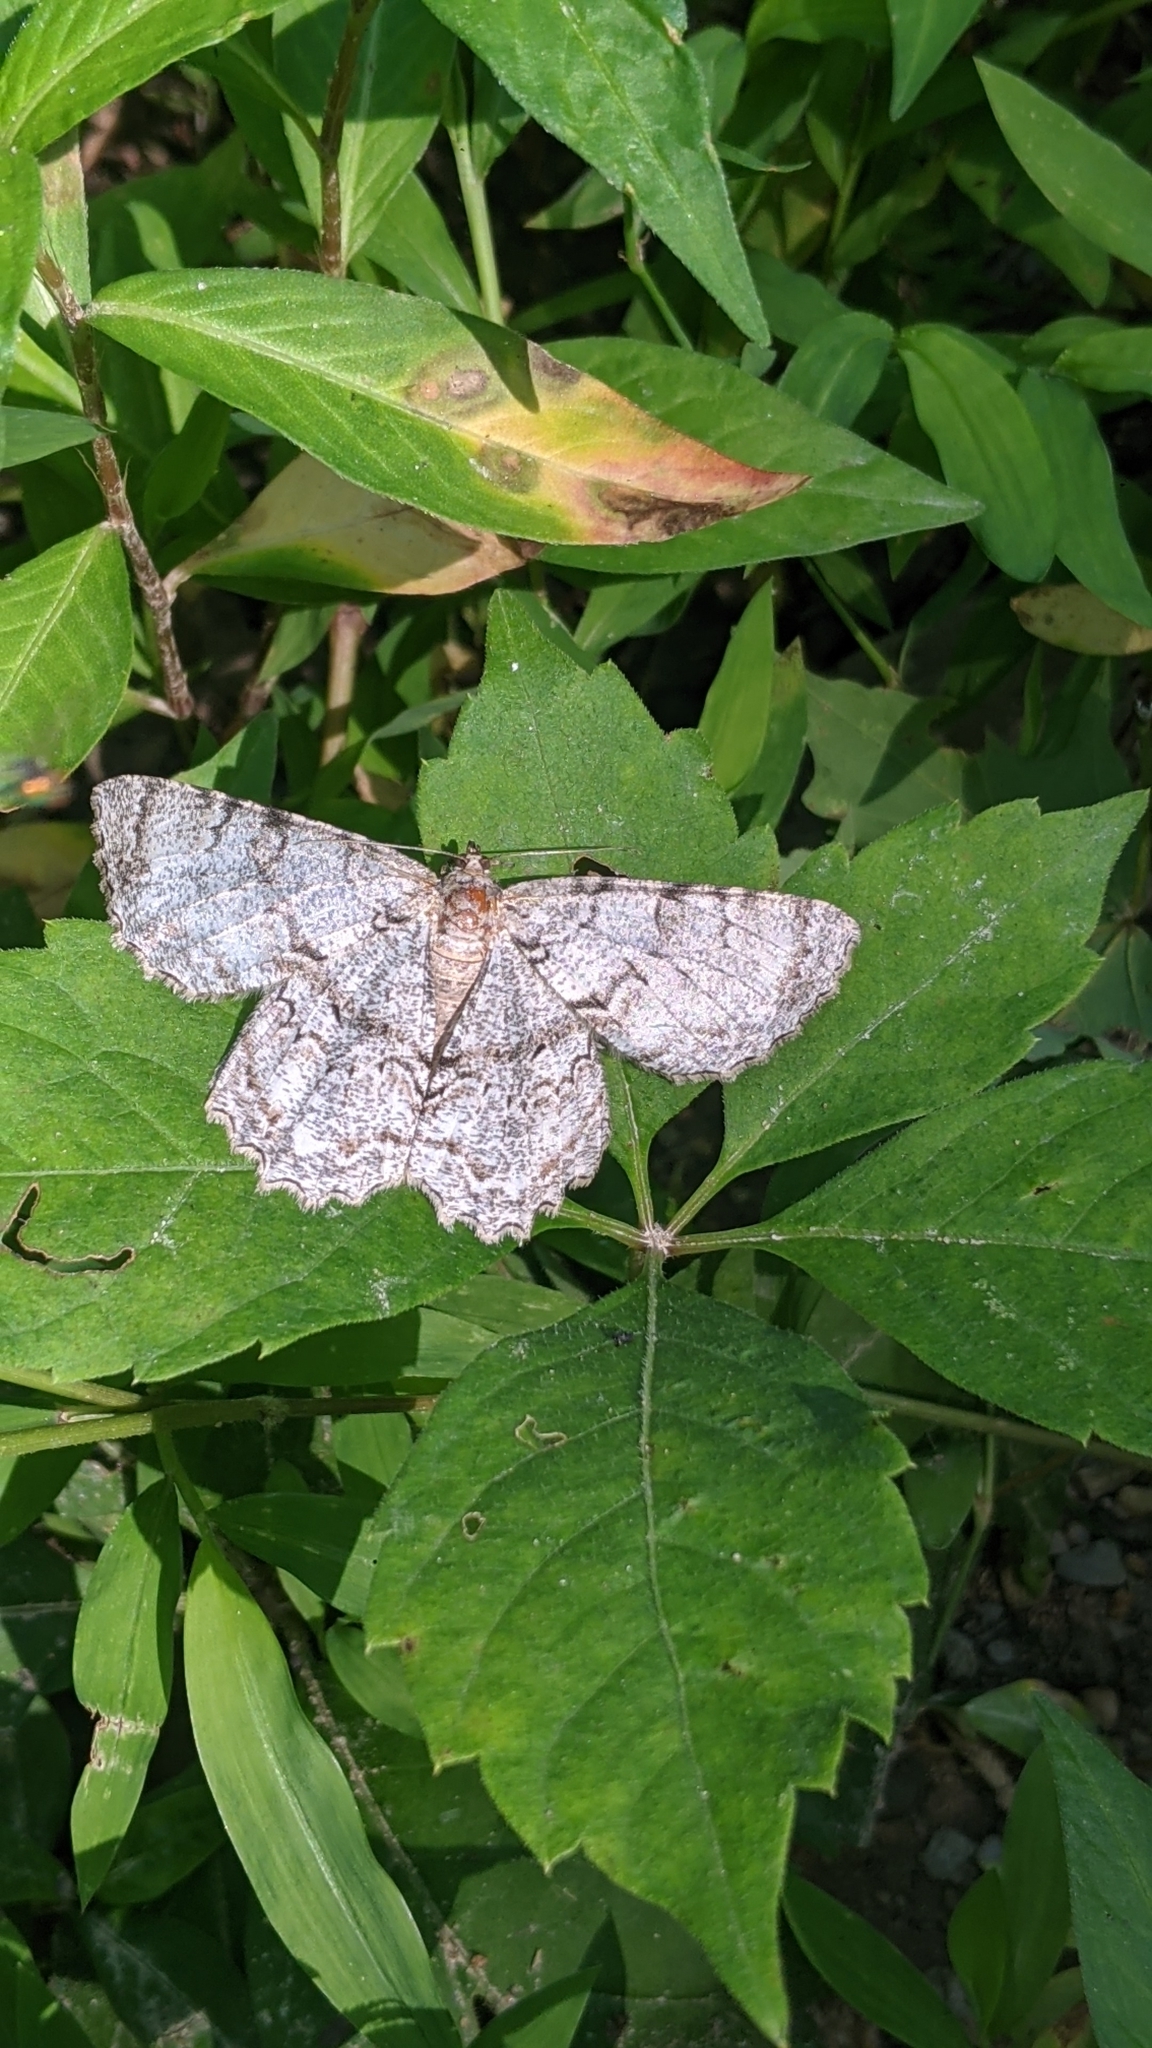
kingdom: Animalia
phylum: Arthropoda
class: Insecta
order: Lepidoptera
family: Geometridae
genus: Epimecis
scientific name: Epimecis hortaria
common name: Tulip-tree beauty
